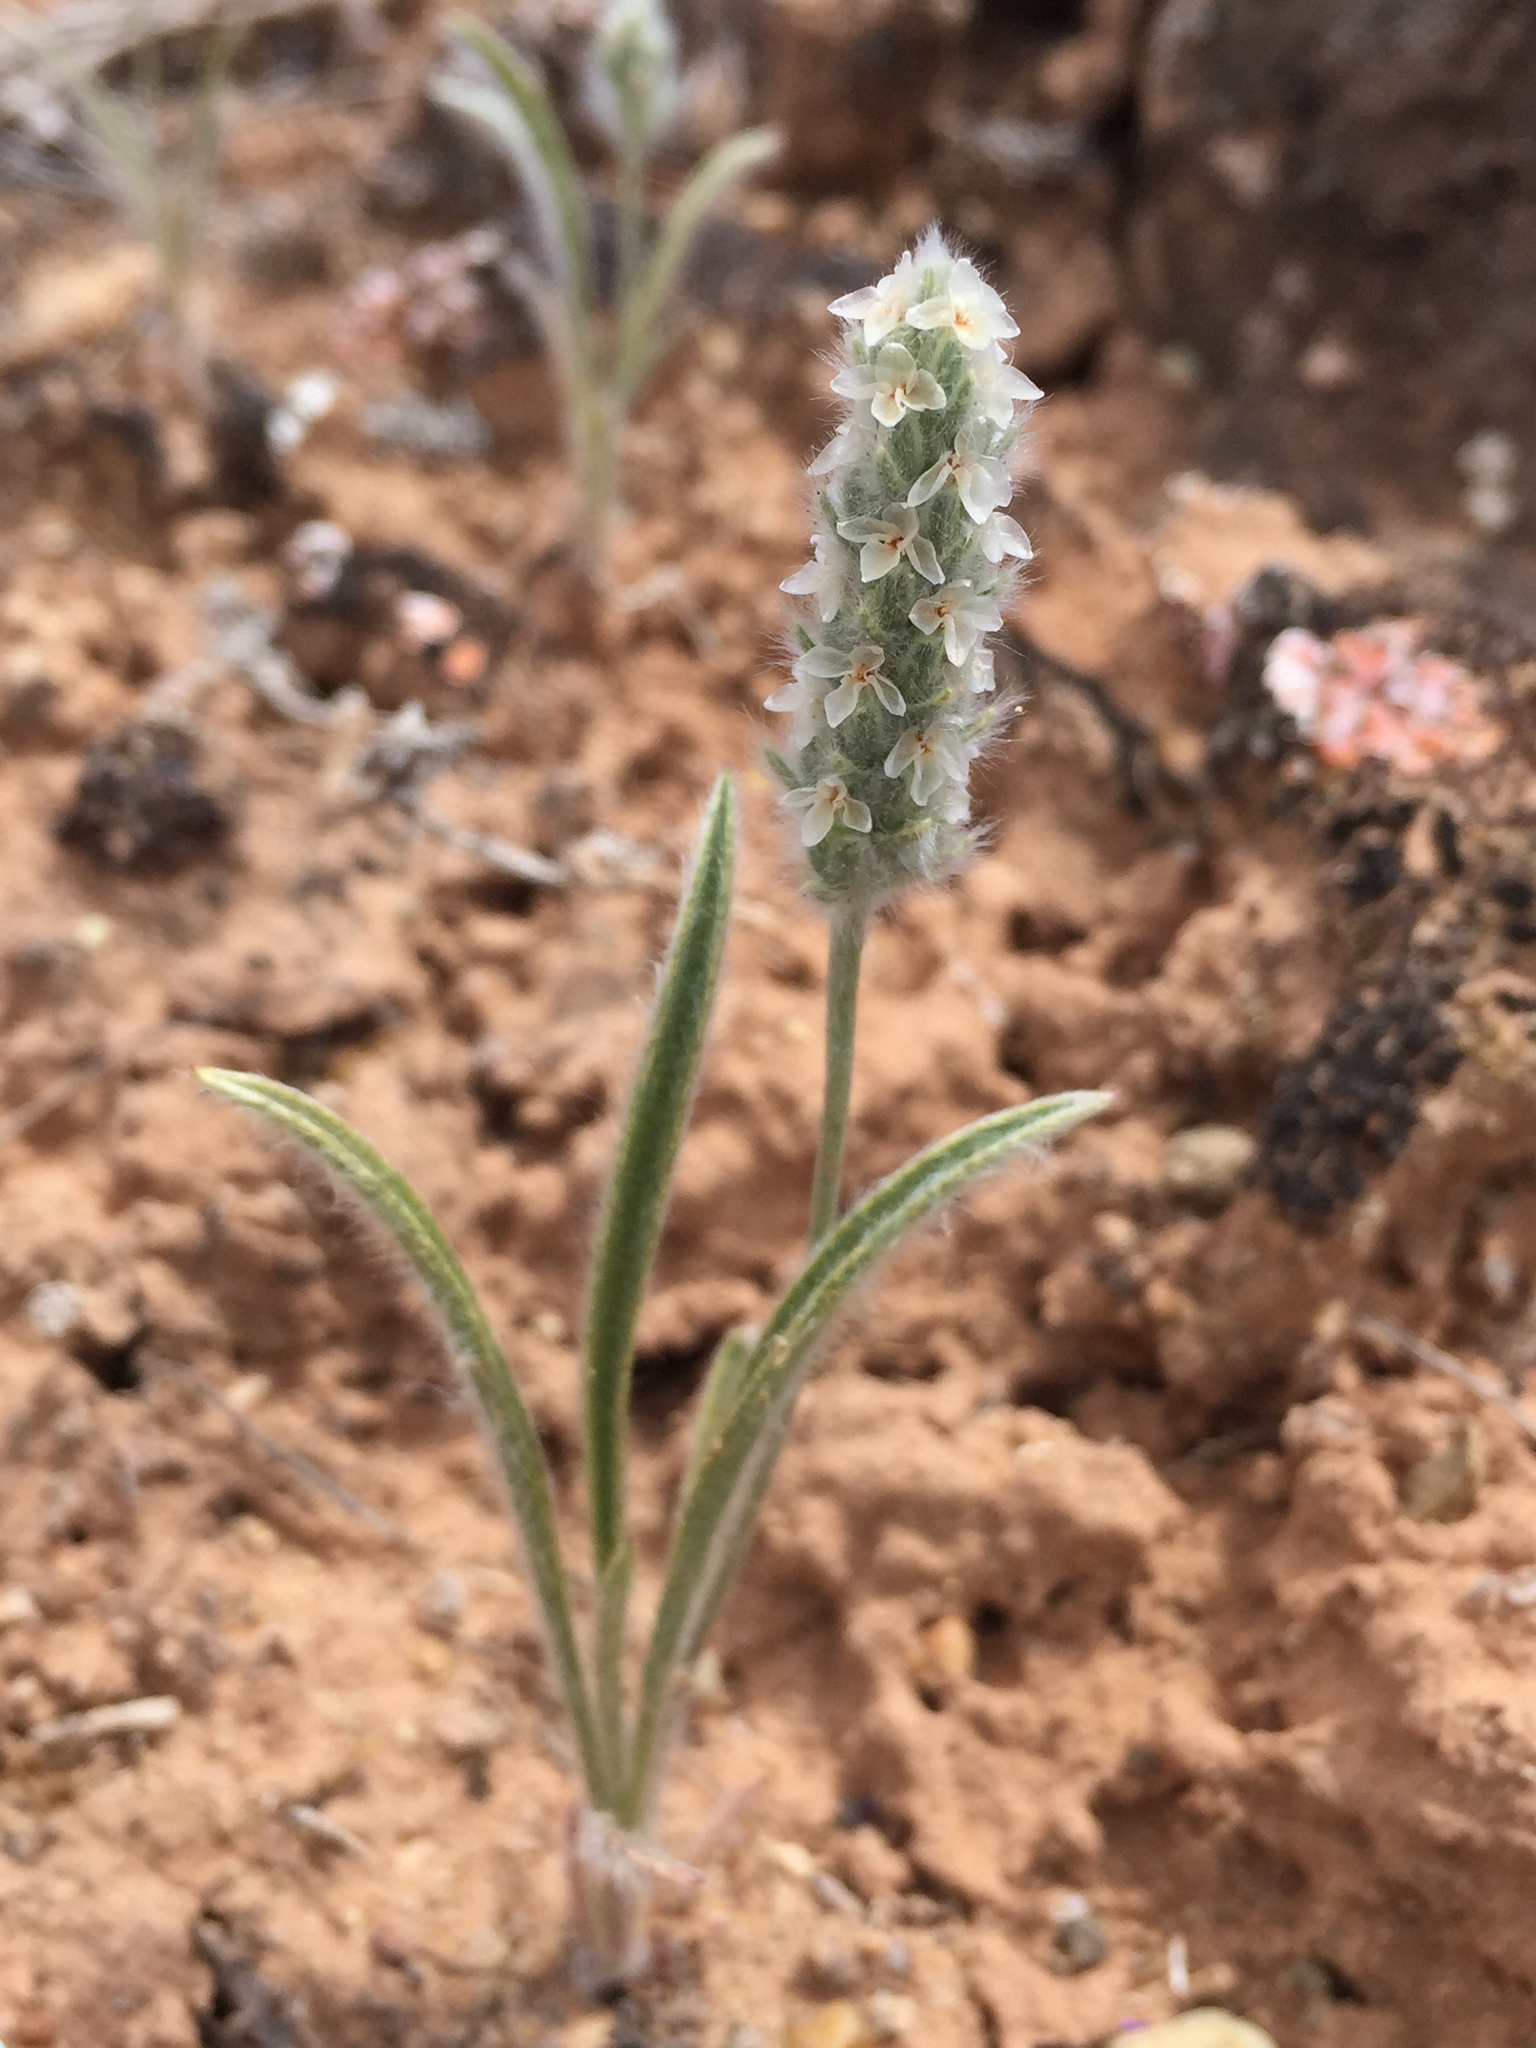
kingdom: Plantae
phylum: Tracheophyta
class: Magnoliopsida
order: Lamiales
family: Plantaginaceae
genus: Plantago
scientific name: Plantago patagonica
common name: Patagonia indian-wheat
